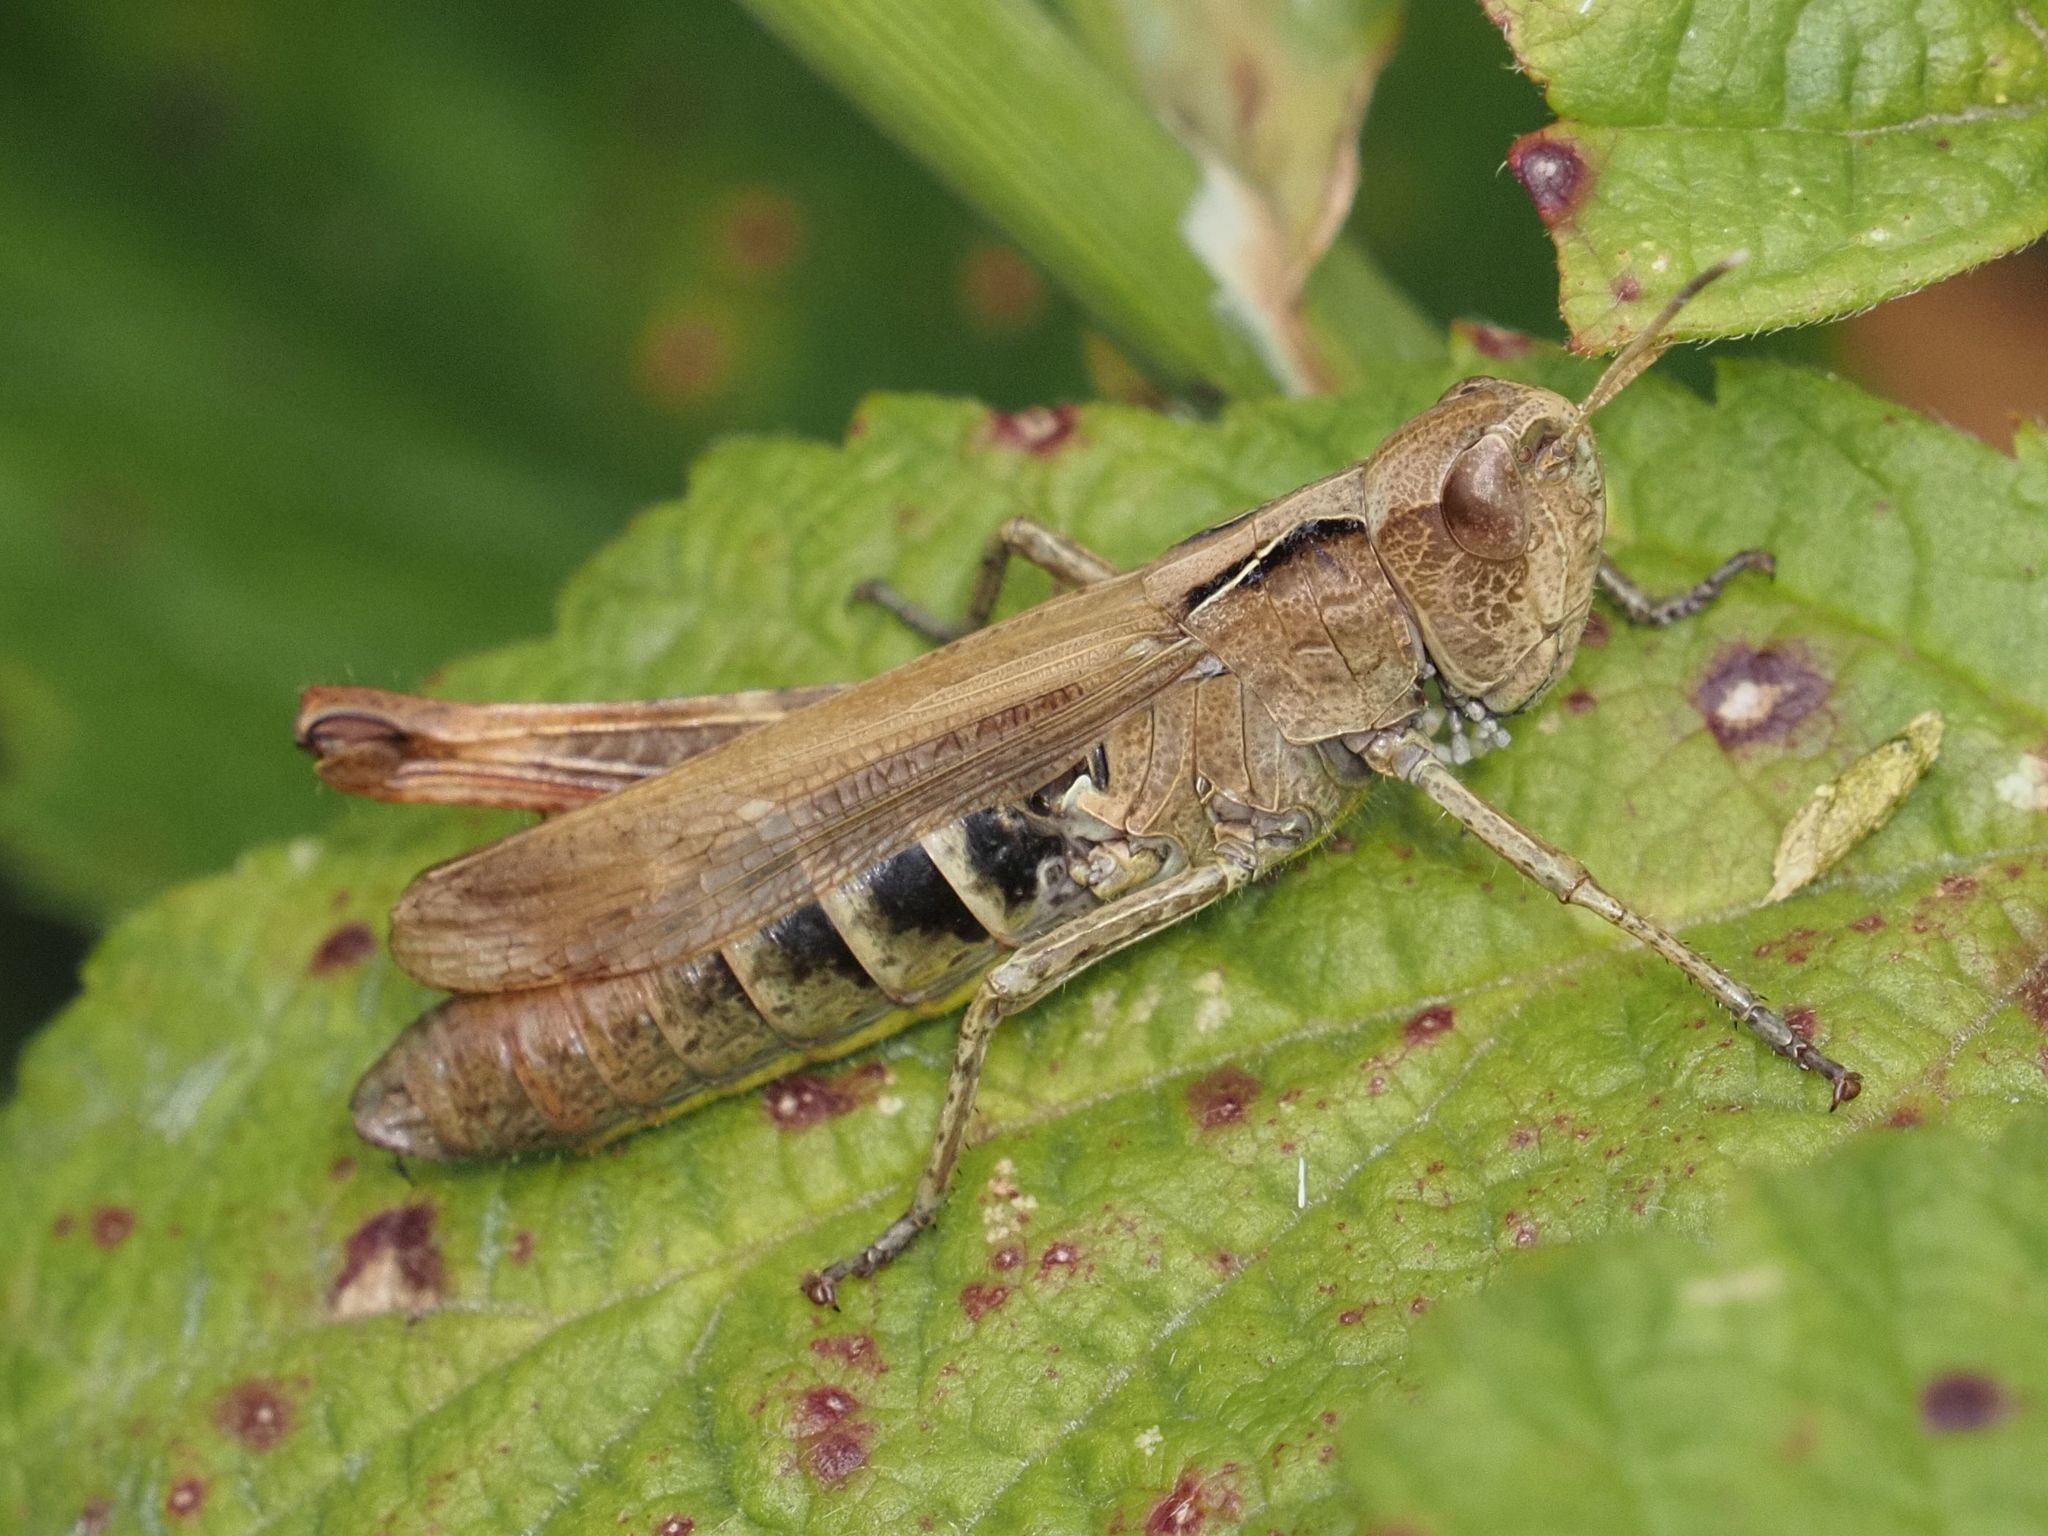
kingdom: Animalia
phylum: Arthropoda
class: Insecta
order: Orthoptera
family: Acrididae
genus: Gomphocerippus
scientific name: Gomphocerippus rufus
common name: Rufous grasshopper
